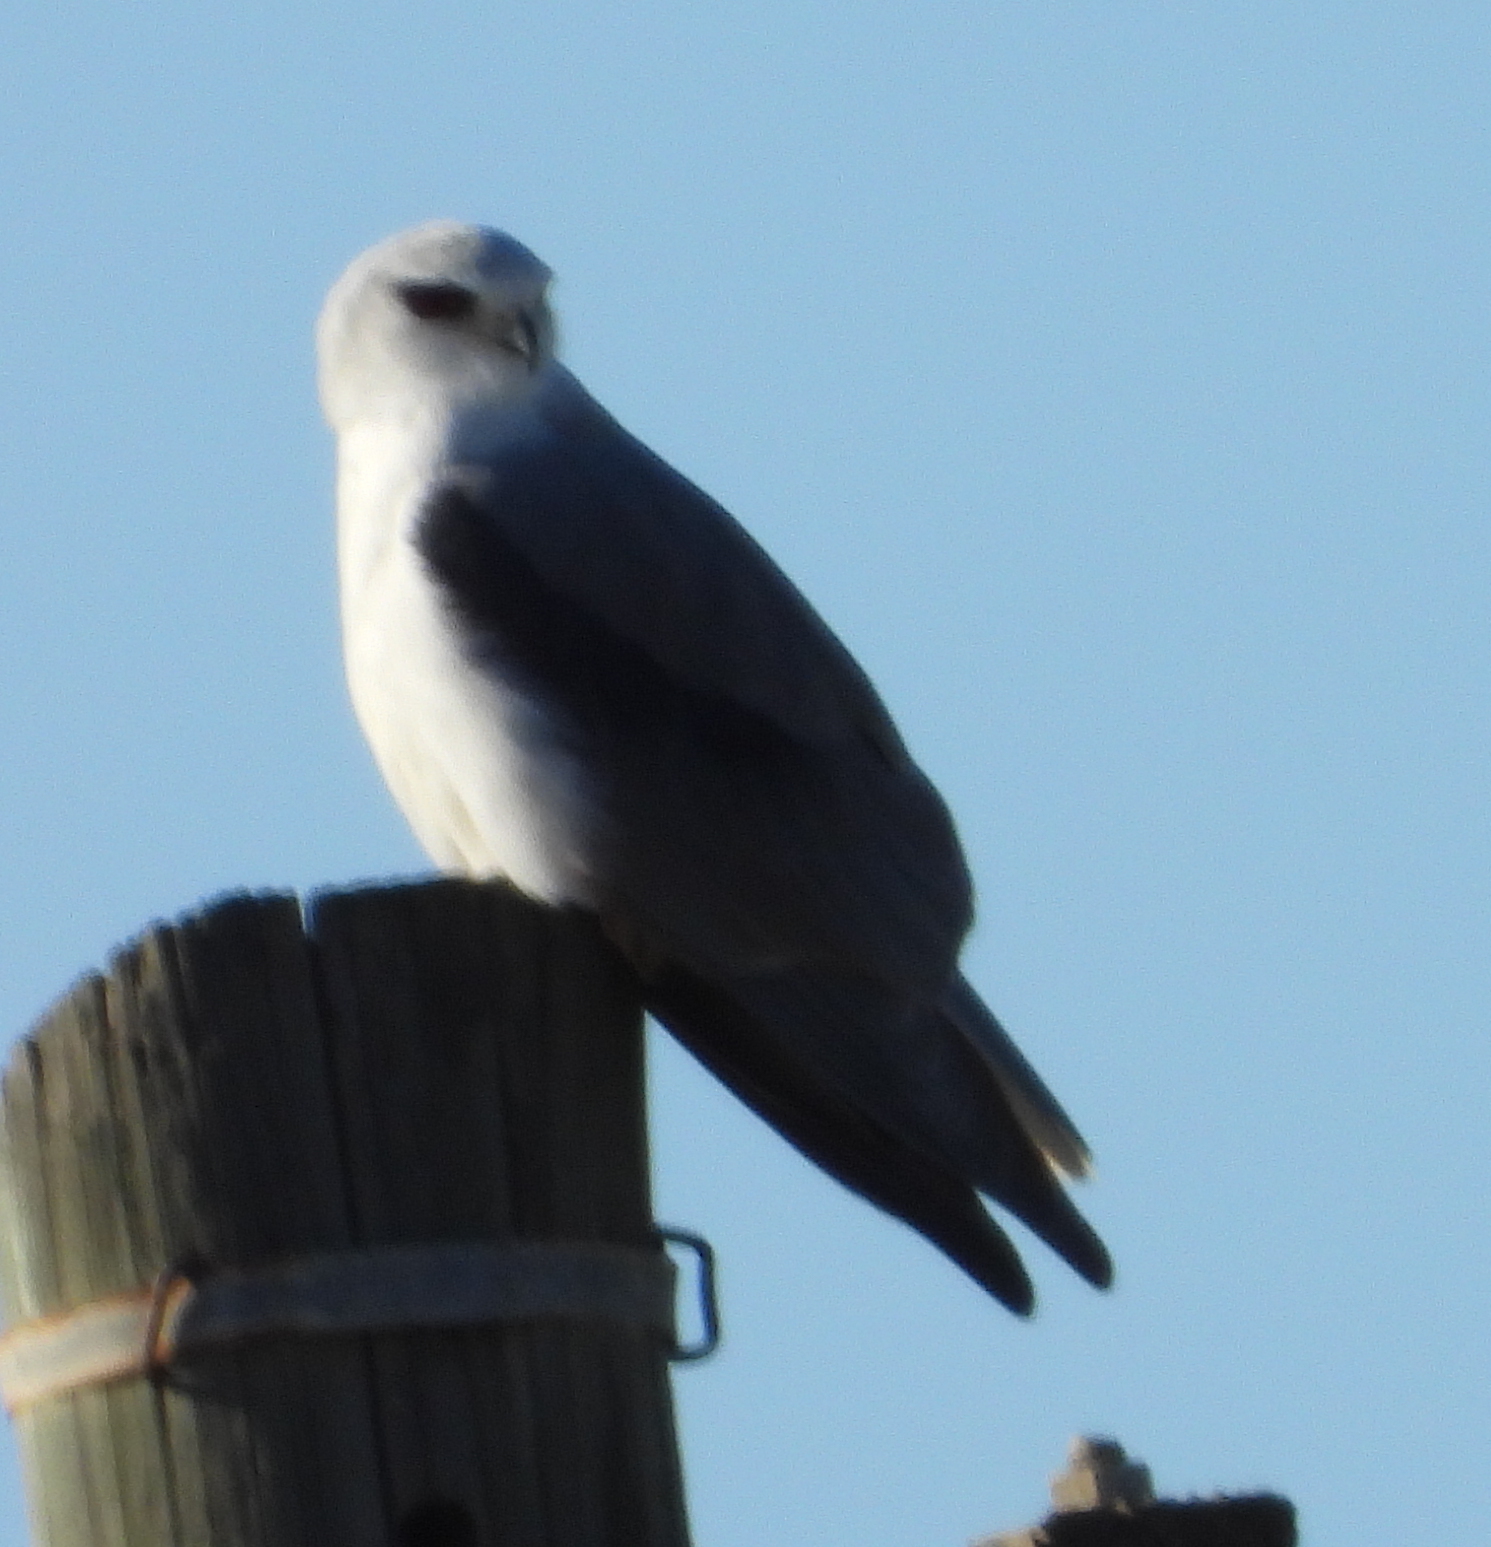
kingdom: Animalia
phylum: Chordata
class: Aves
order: Accipitriformes
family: Accipitridae
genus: Elanus
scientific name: Elanus caeruleus
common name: Black-winged kite
